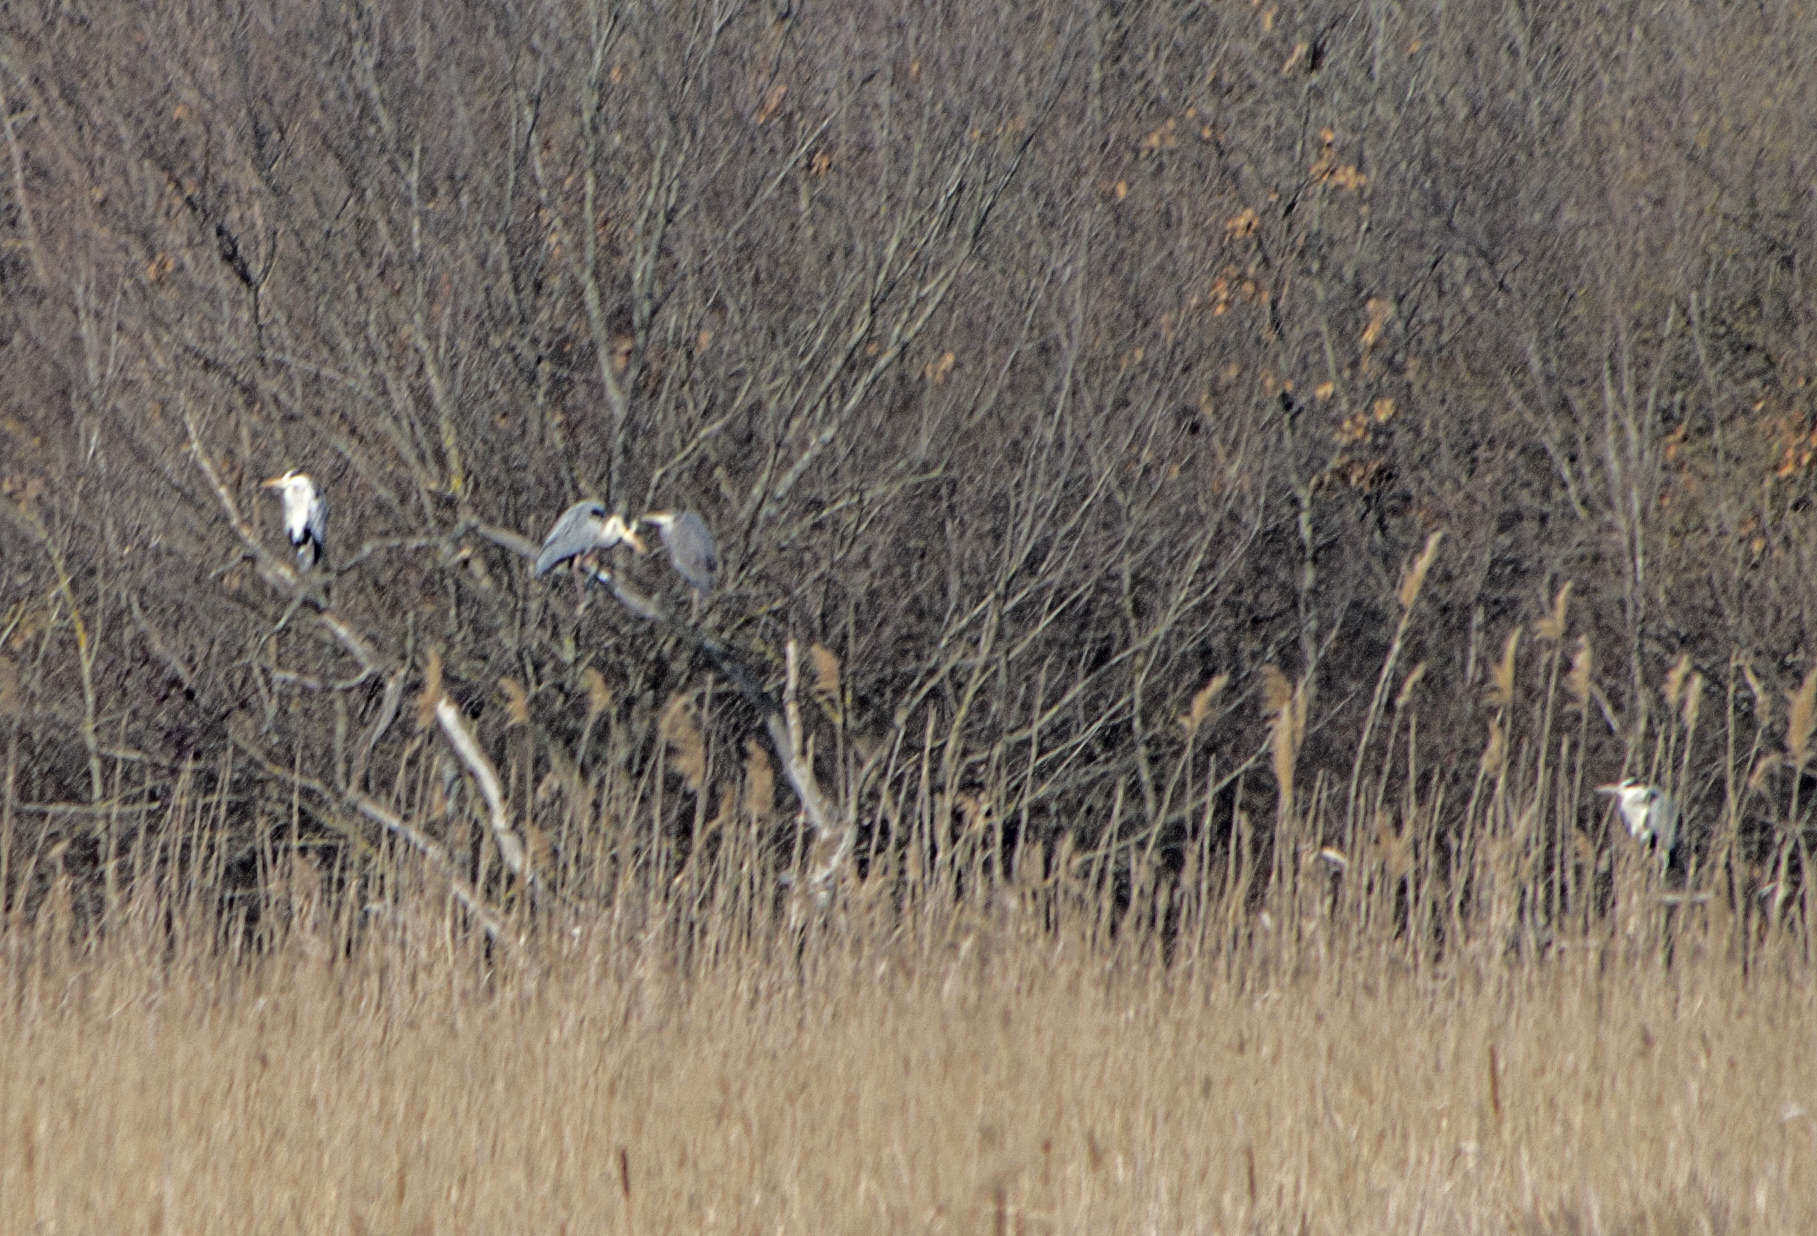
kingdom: Animalia
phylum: Chordata
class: Aves
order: Pelecaniformes
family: Ardeidae
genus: Ardea
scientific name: Ardea cinerea
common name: Grey heron
